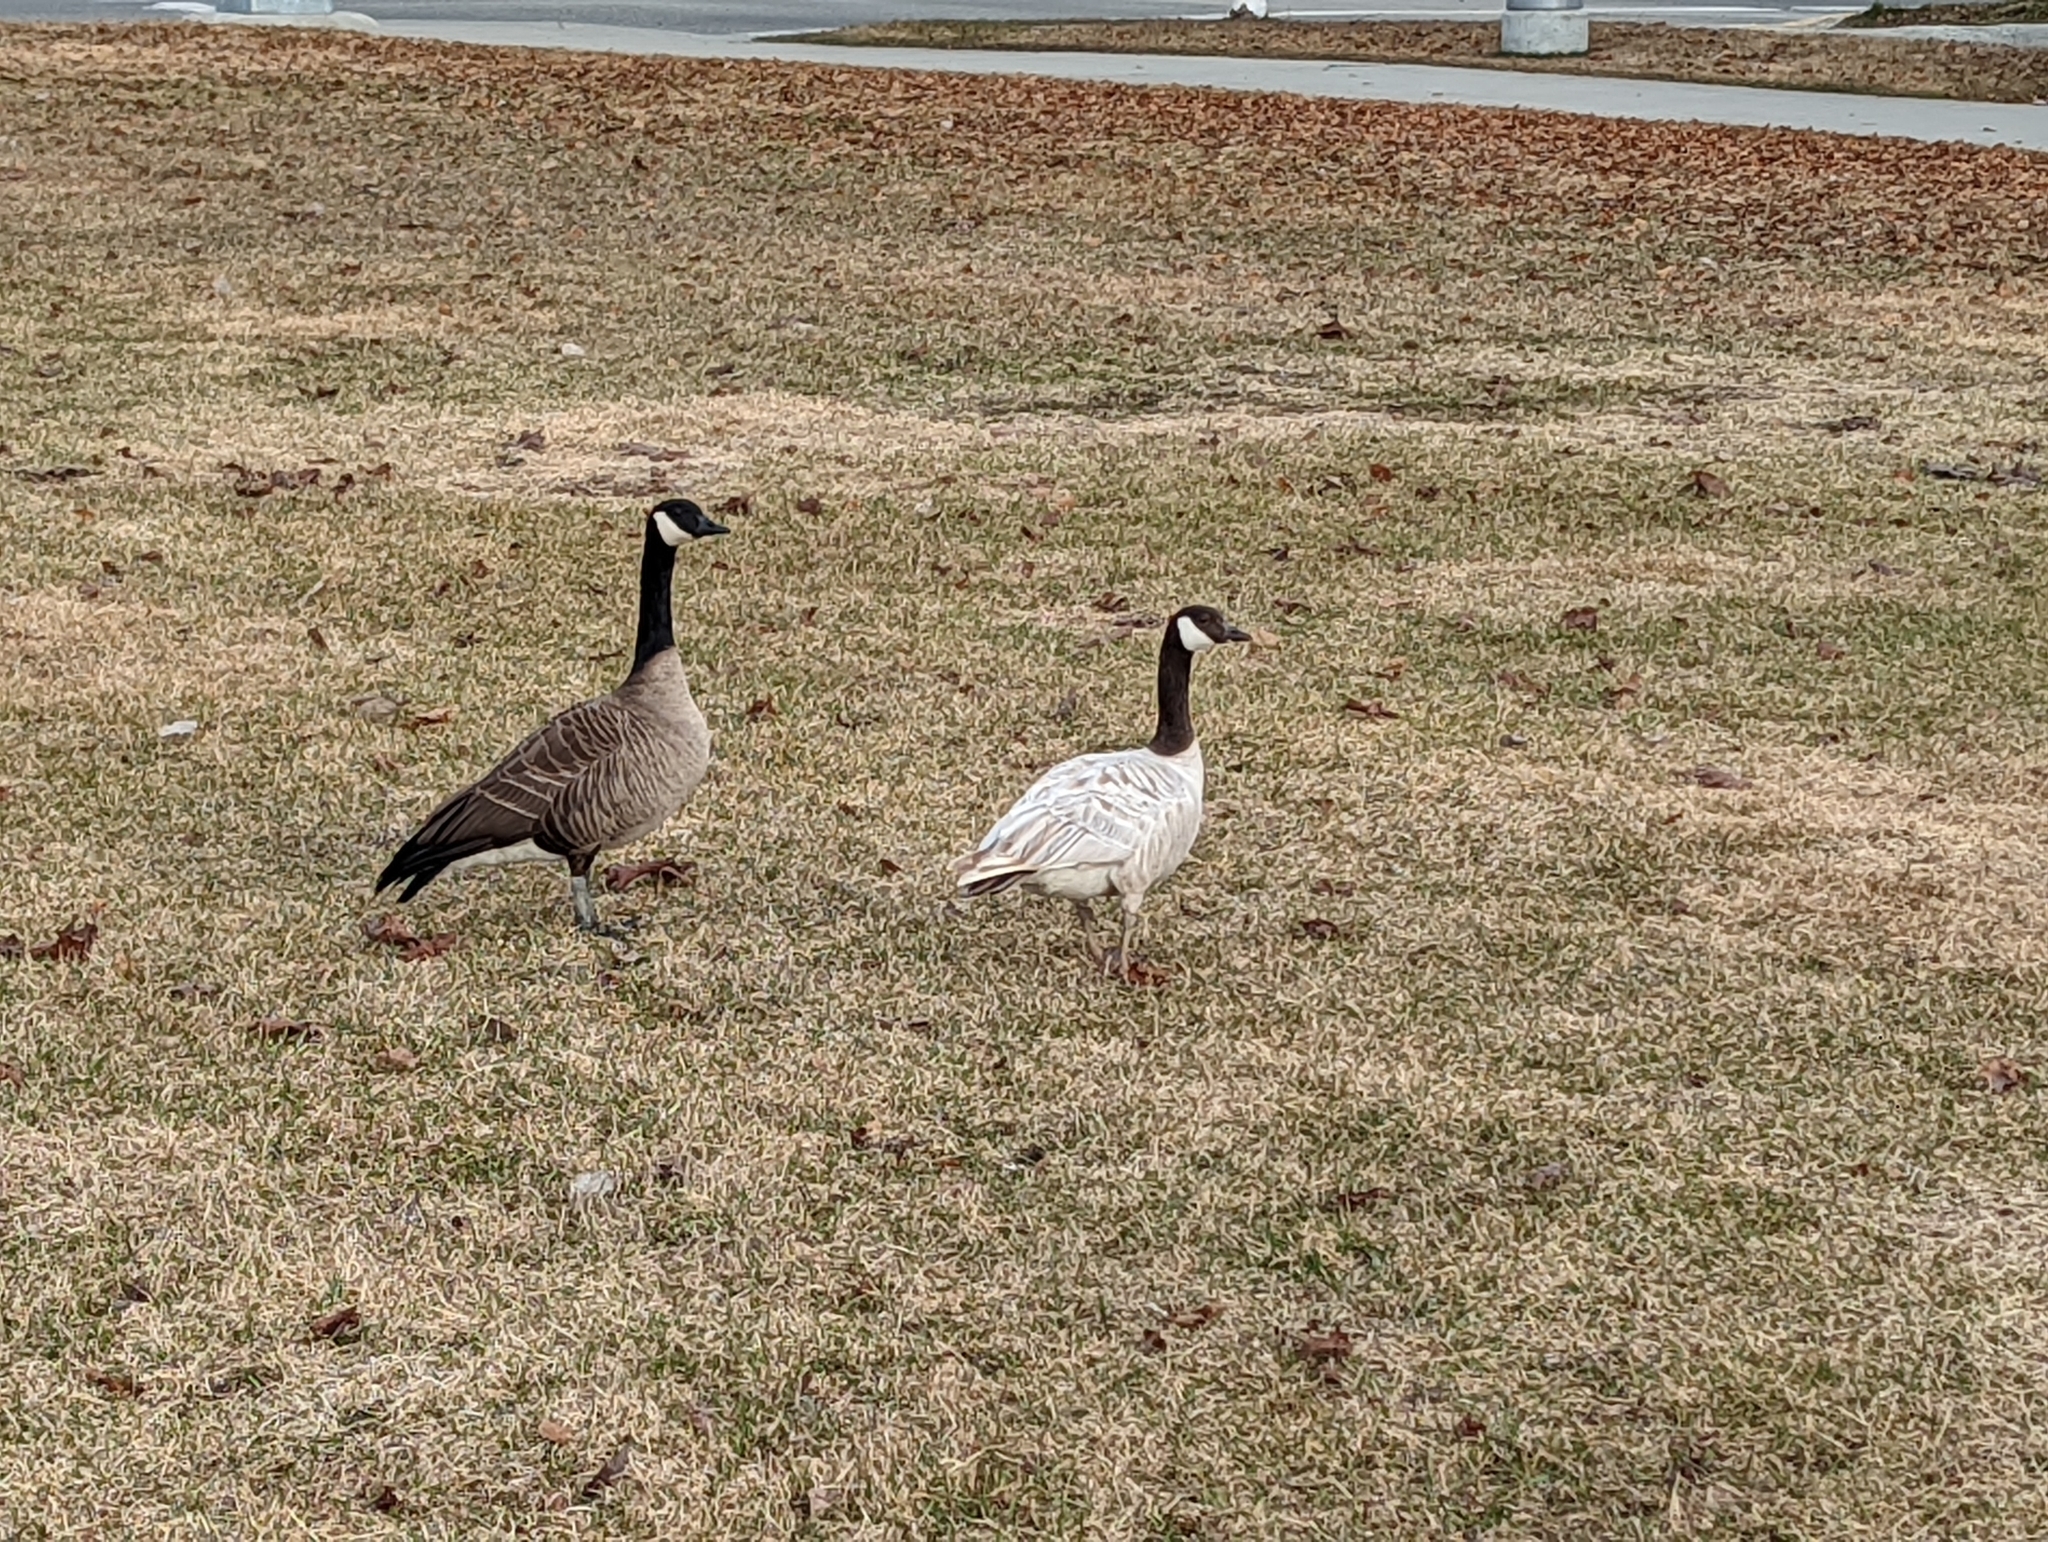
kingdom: Animalia
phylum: Chordata
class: Aves
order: Anseriformes
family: Anatidae
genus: Branta
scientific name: Branta canadensis
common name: Canada goose
